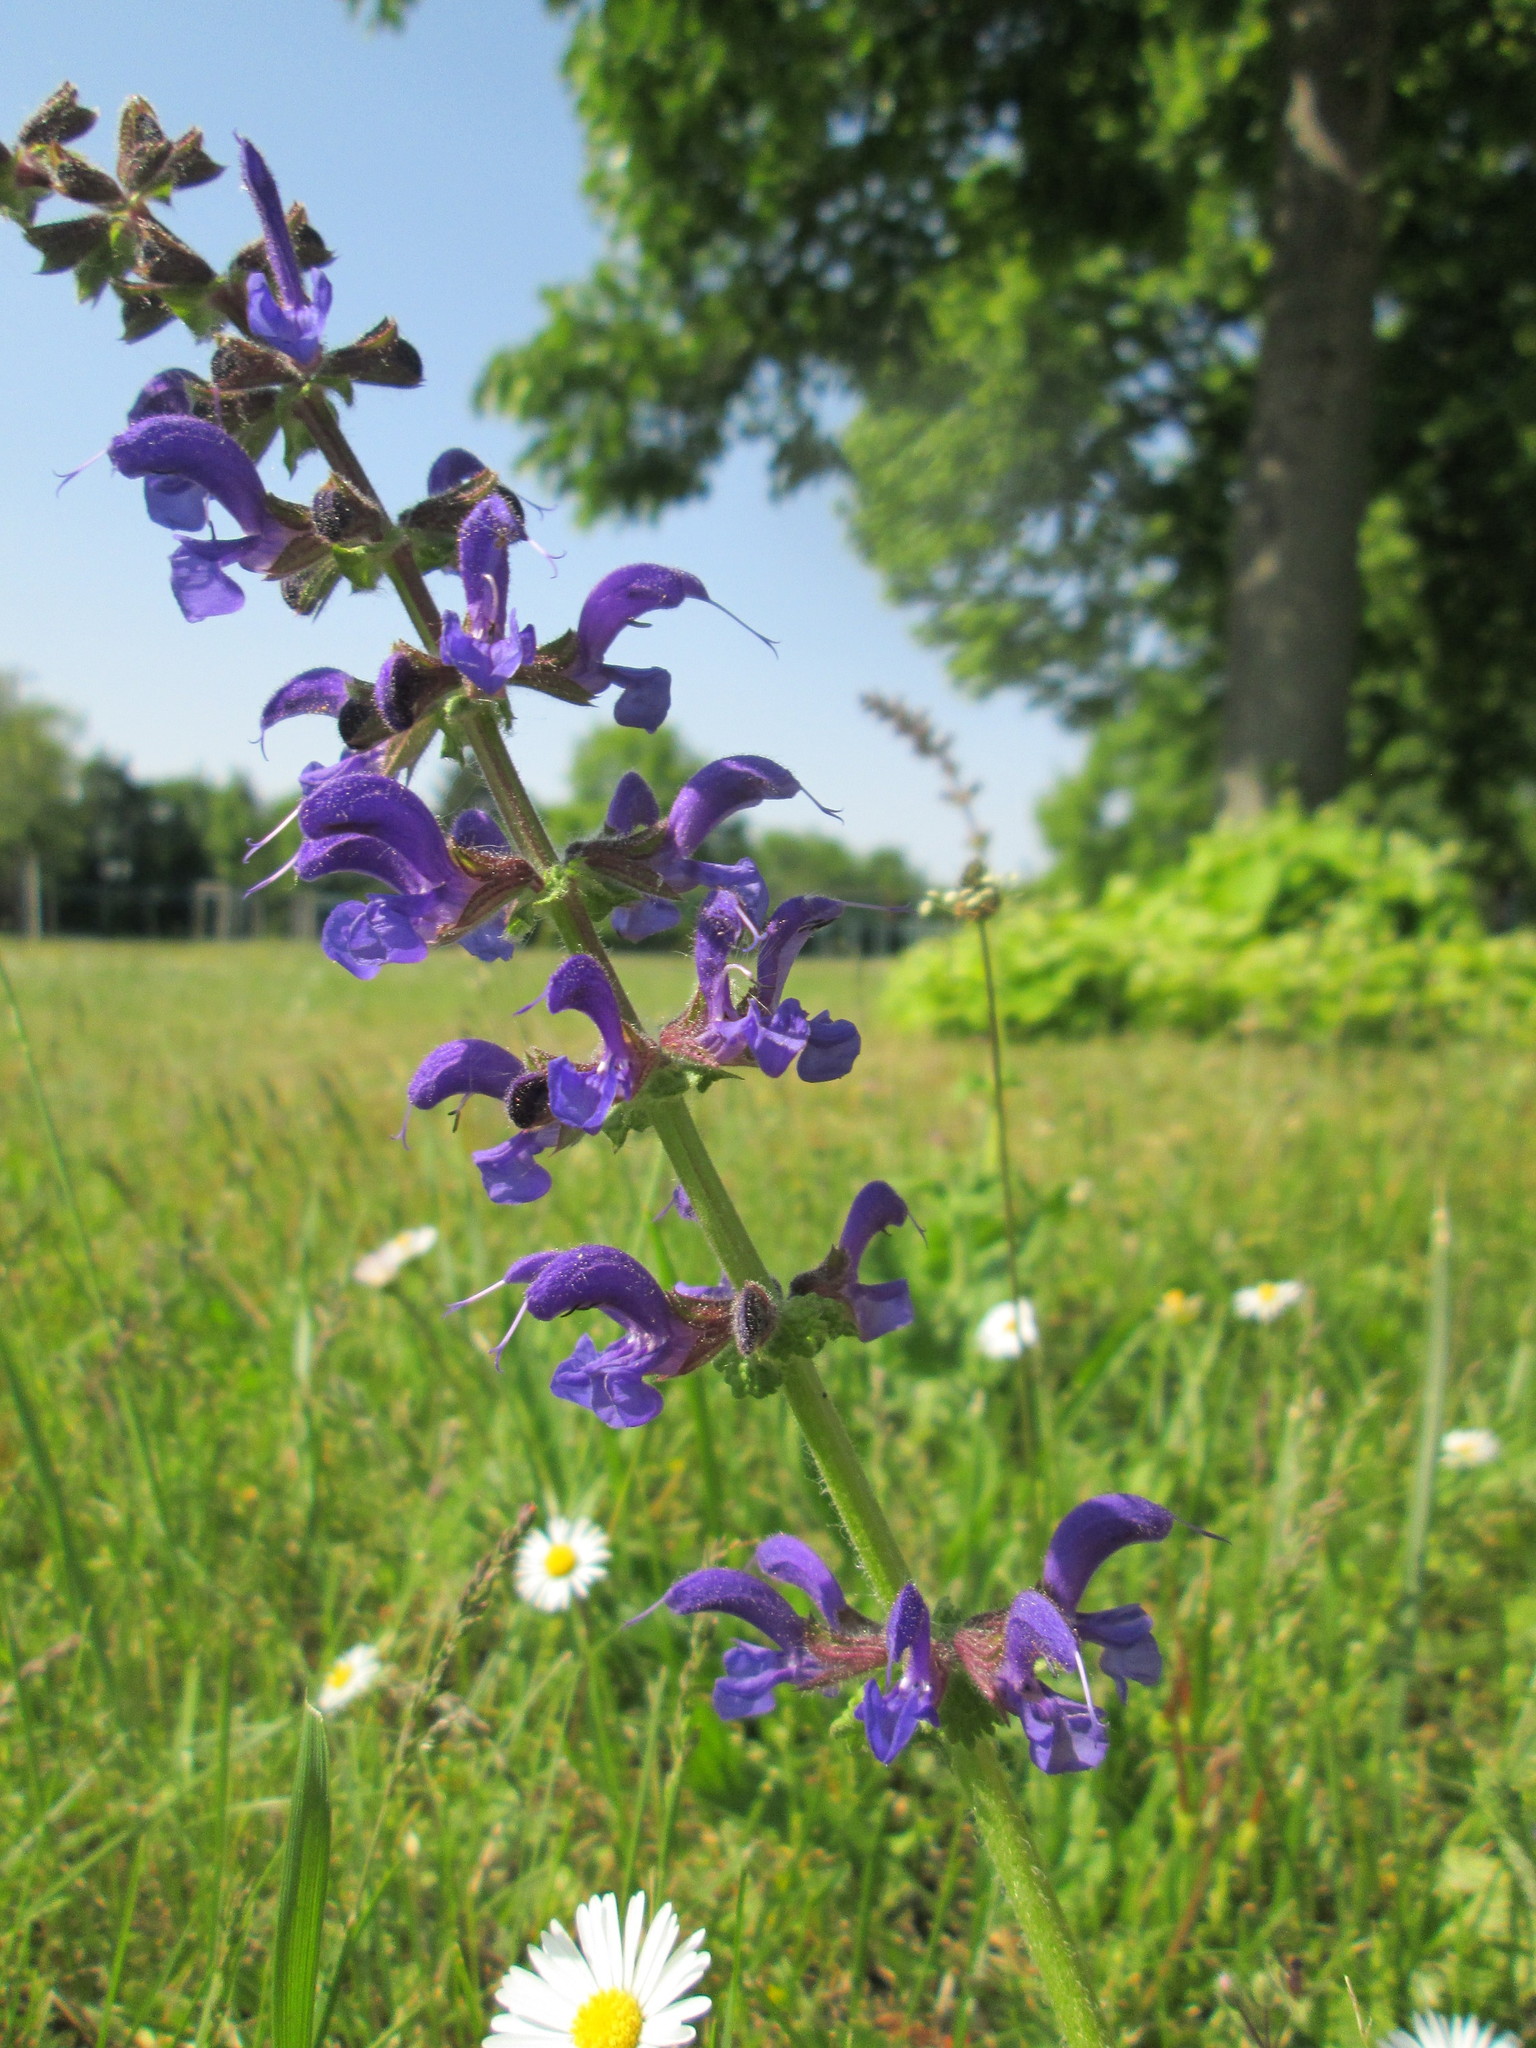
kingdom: Plantae
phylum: Tracheophyta
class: Magnoliopsida
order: Lamiales
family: Lamiaceae
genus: Salvia
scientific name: Salvia pratensis
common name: Meadow sage
